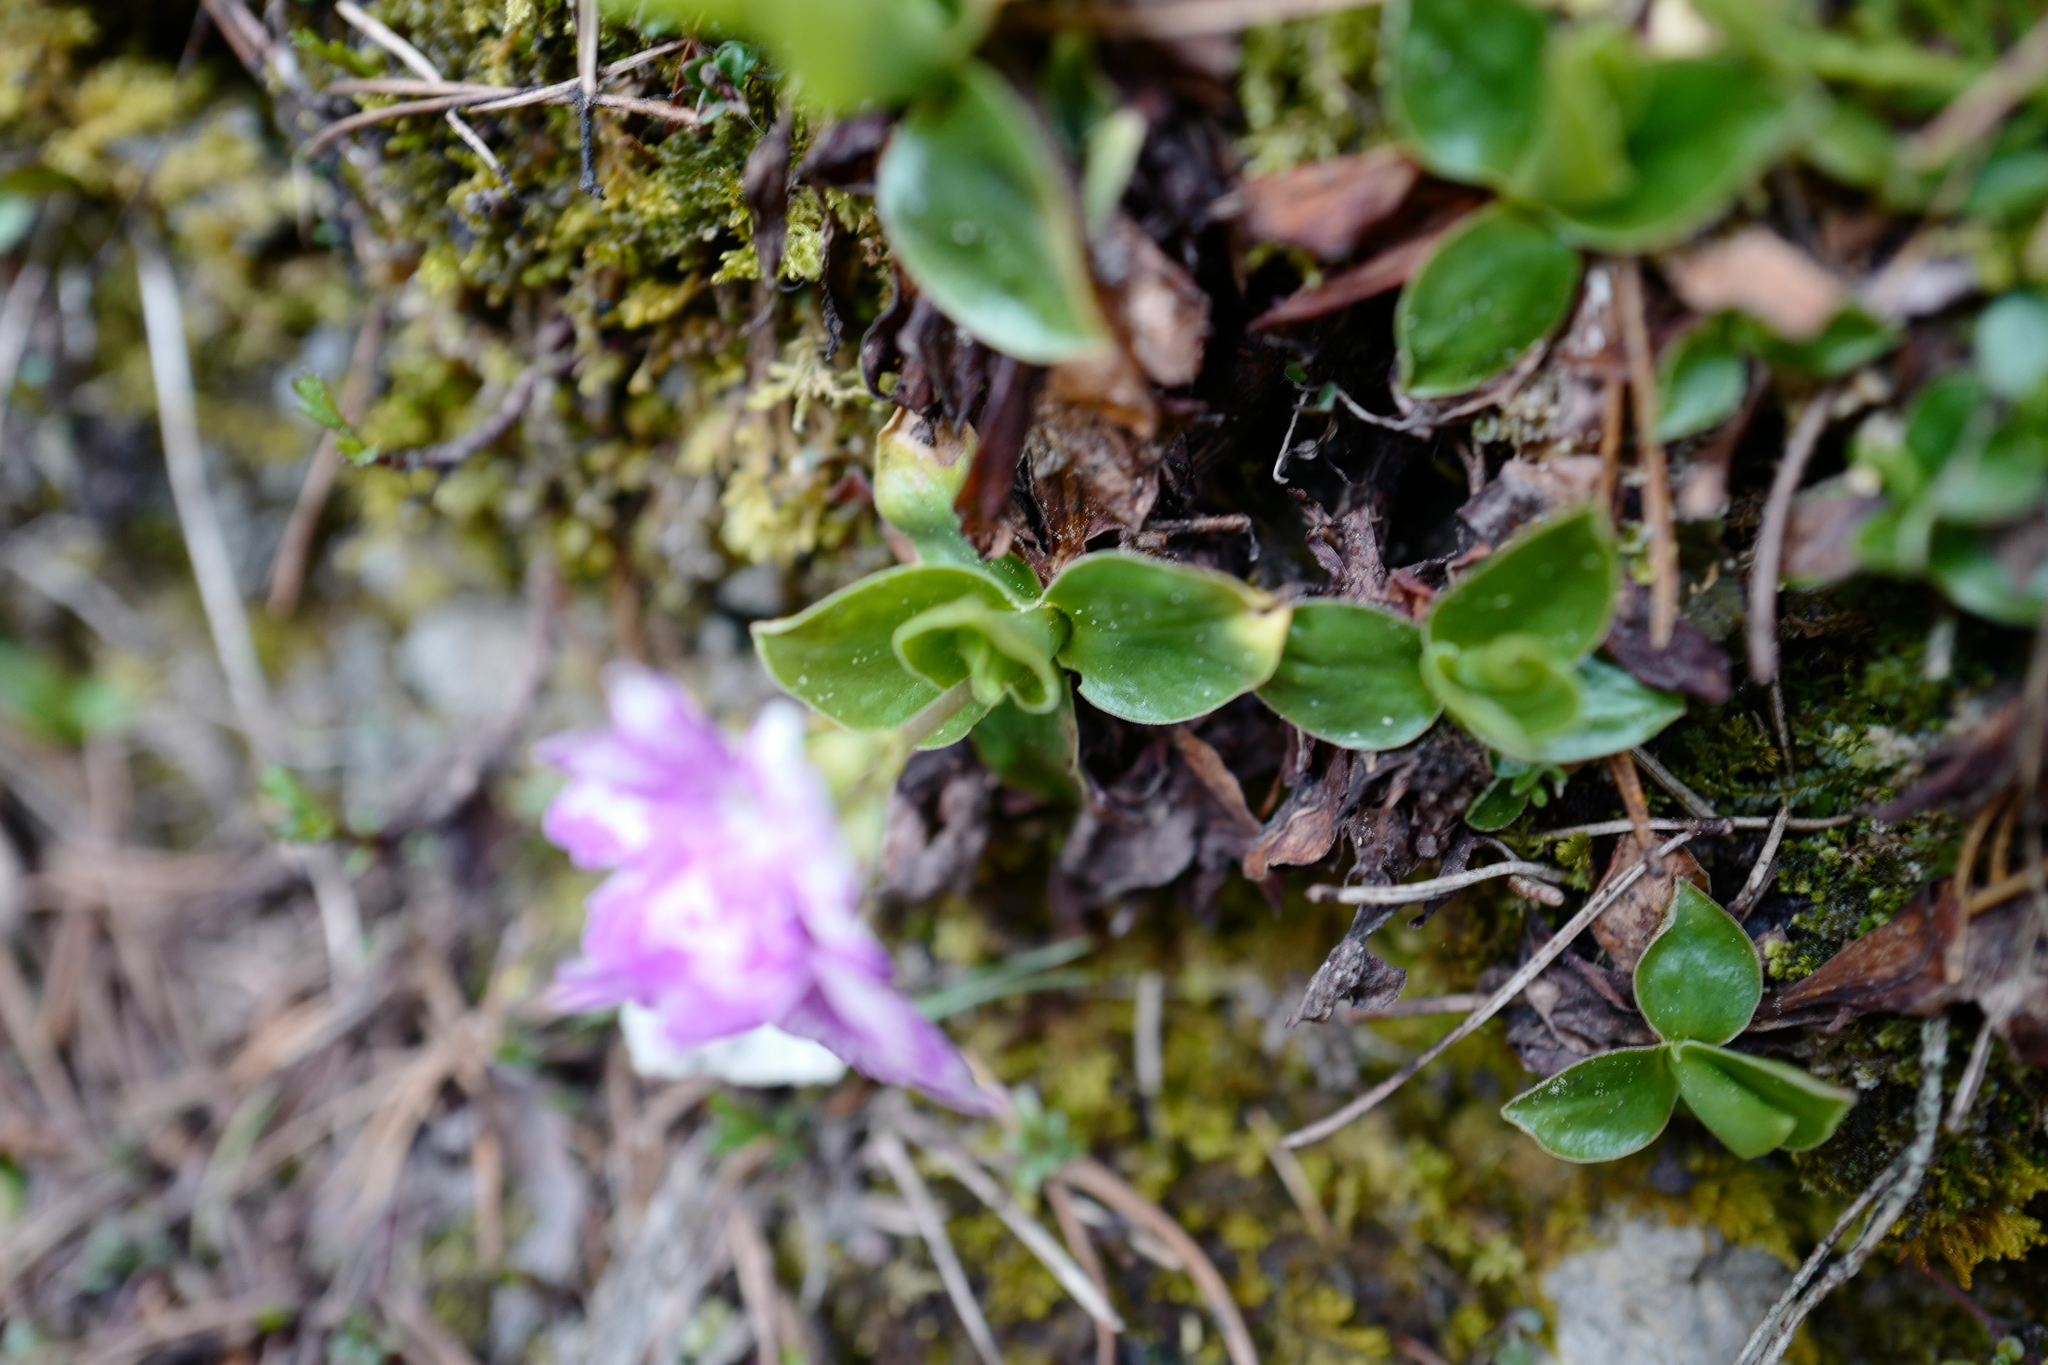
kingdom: Plantae
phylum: Tracheophyta
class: Magnoliopsida
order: Ericales
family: Primulaceae
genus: Primula
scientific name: Primula clusiana
